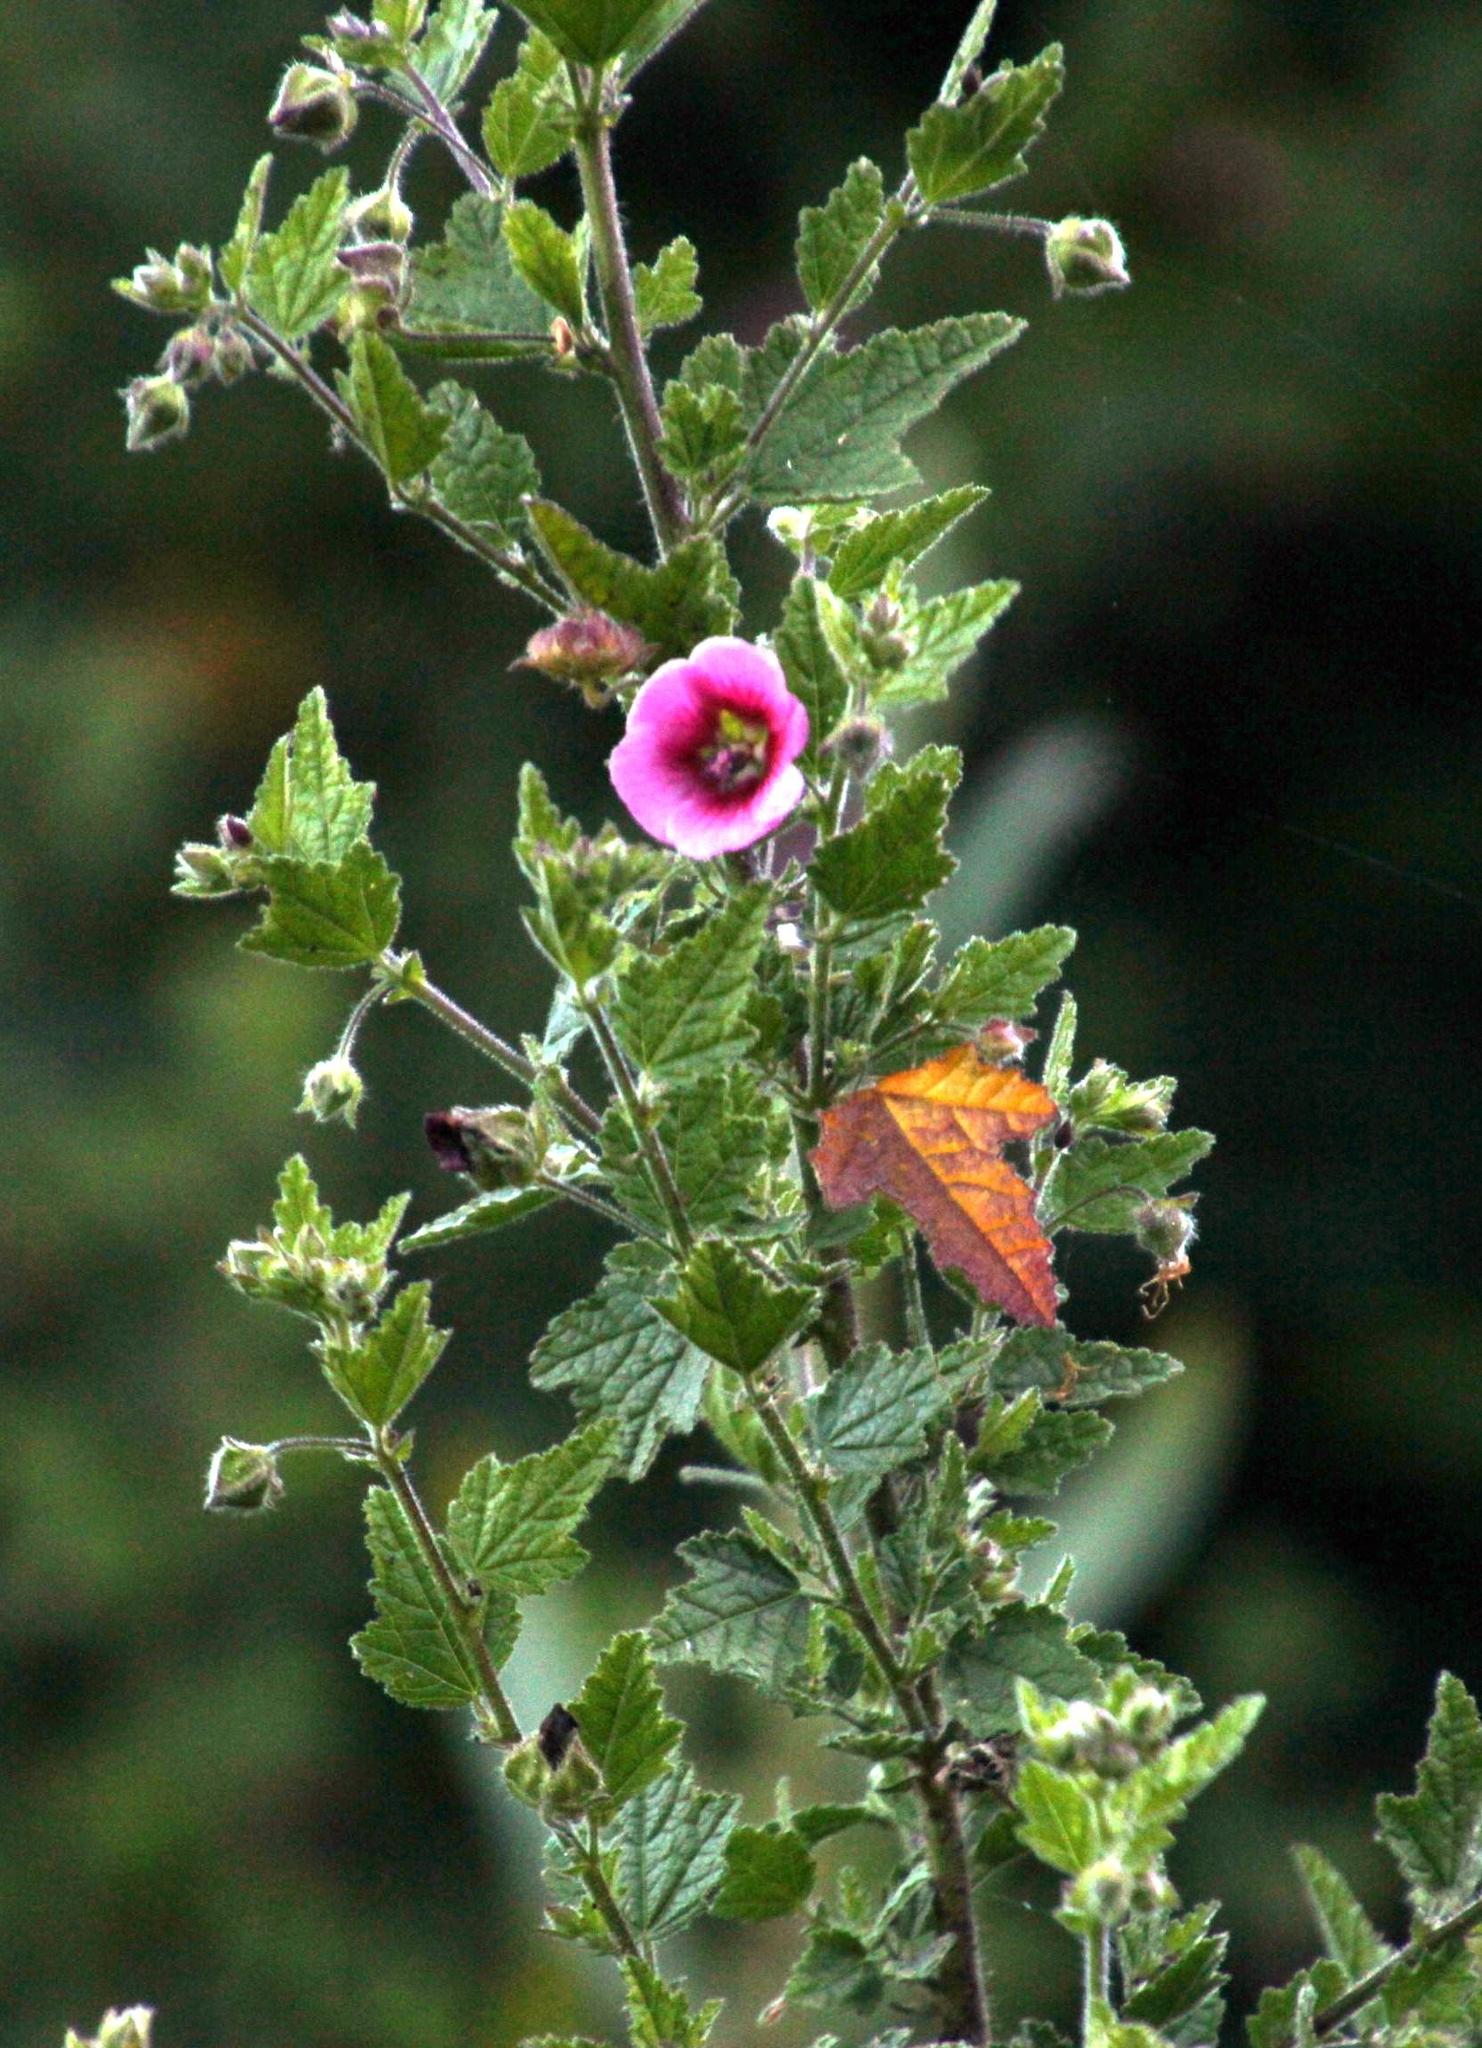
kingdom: Plantae
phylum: Tracheophyta
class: Magnoliopsida
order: Malvales
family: Malvaceae
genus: Malva
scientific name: Malva arborea
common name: Tree mallow
